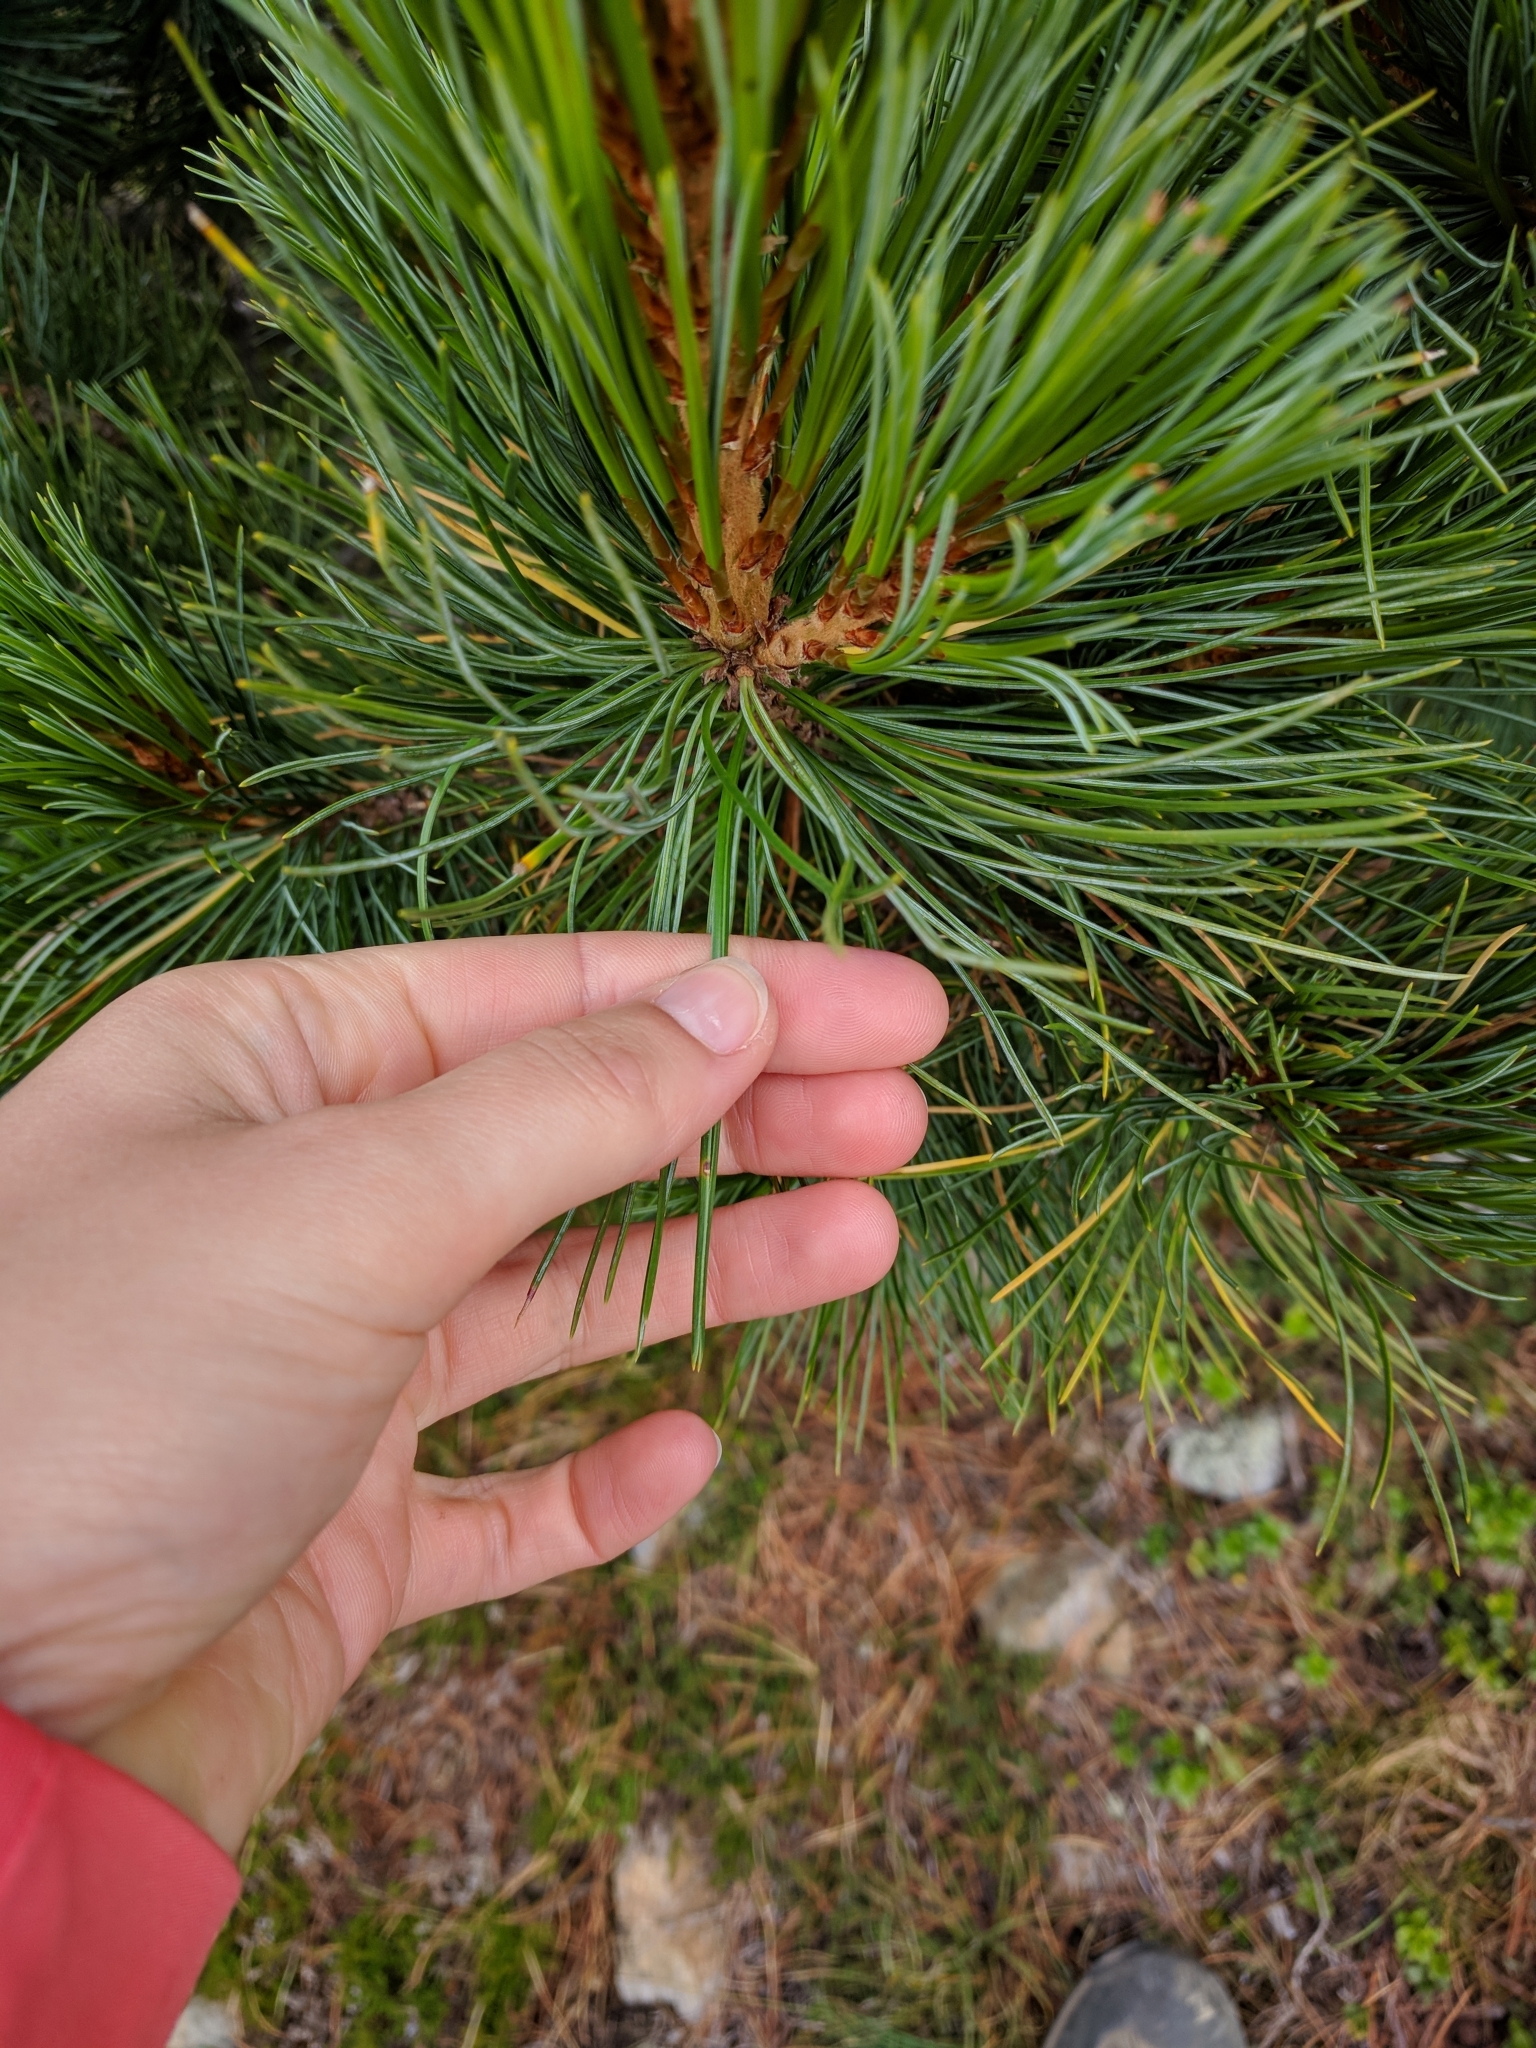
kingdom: Plantae
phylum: Tracheophyta
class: Pinopsida
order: Pinales
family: Pinaceae
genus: Pinus
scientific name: Pinus cembra
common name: Arolla pine
